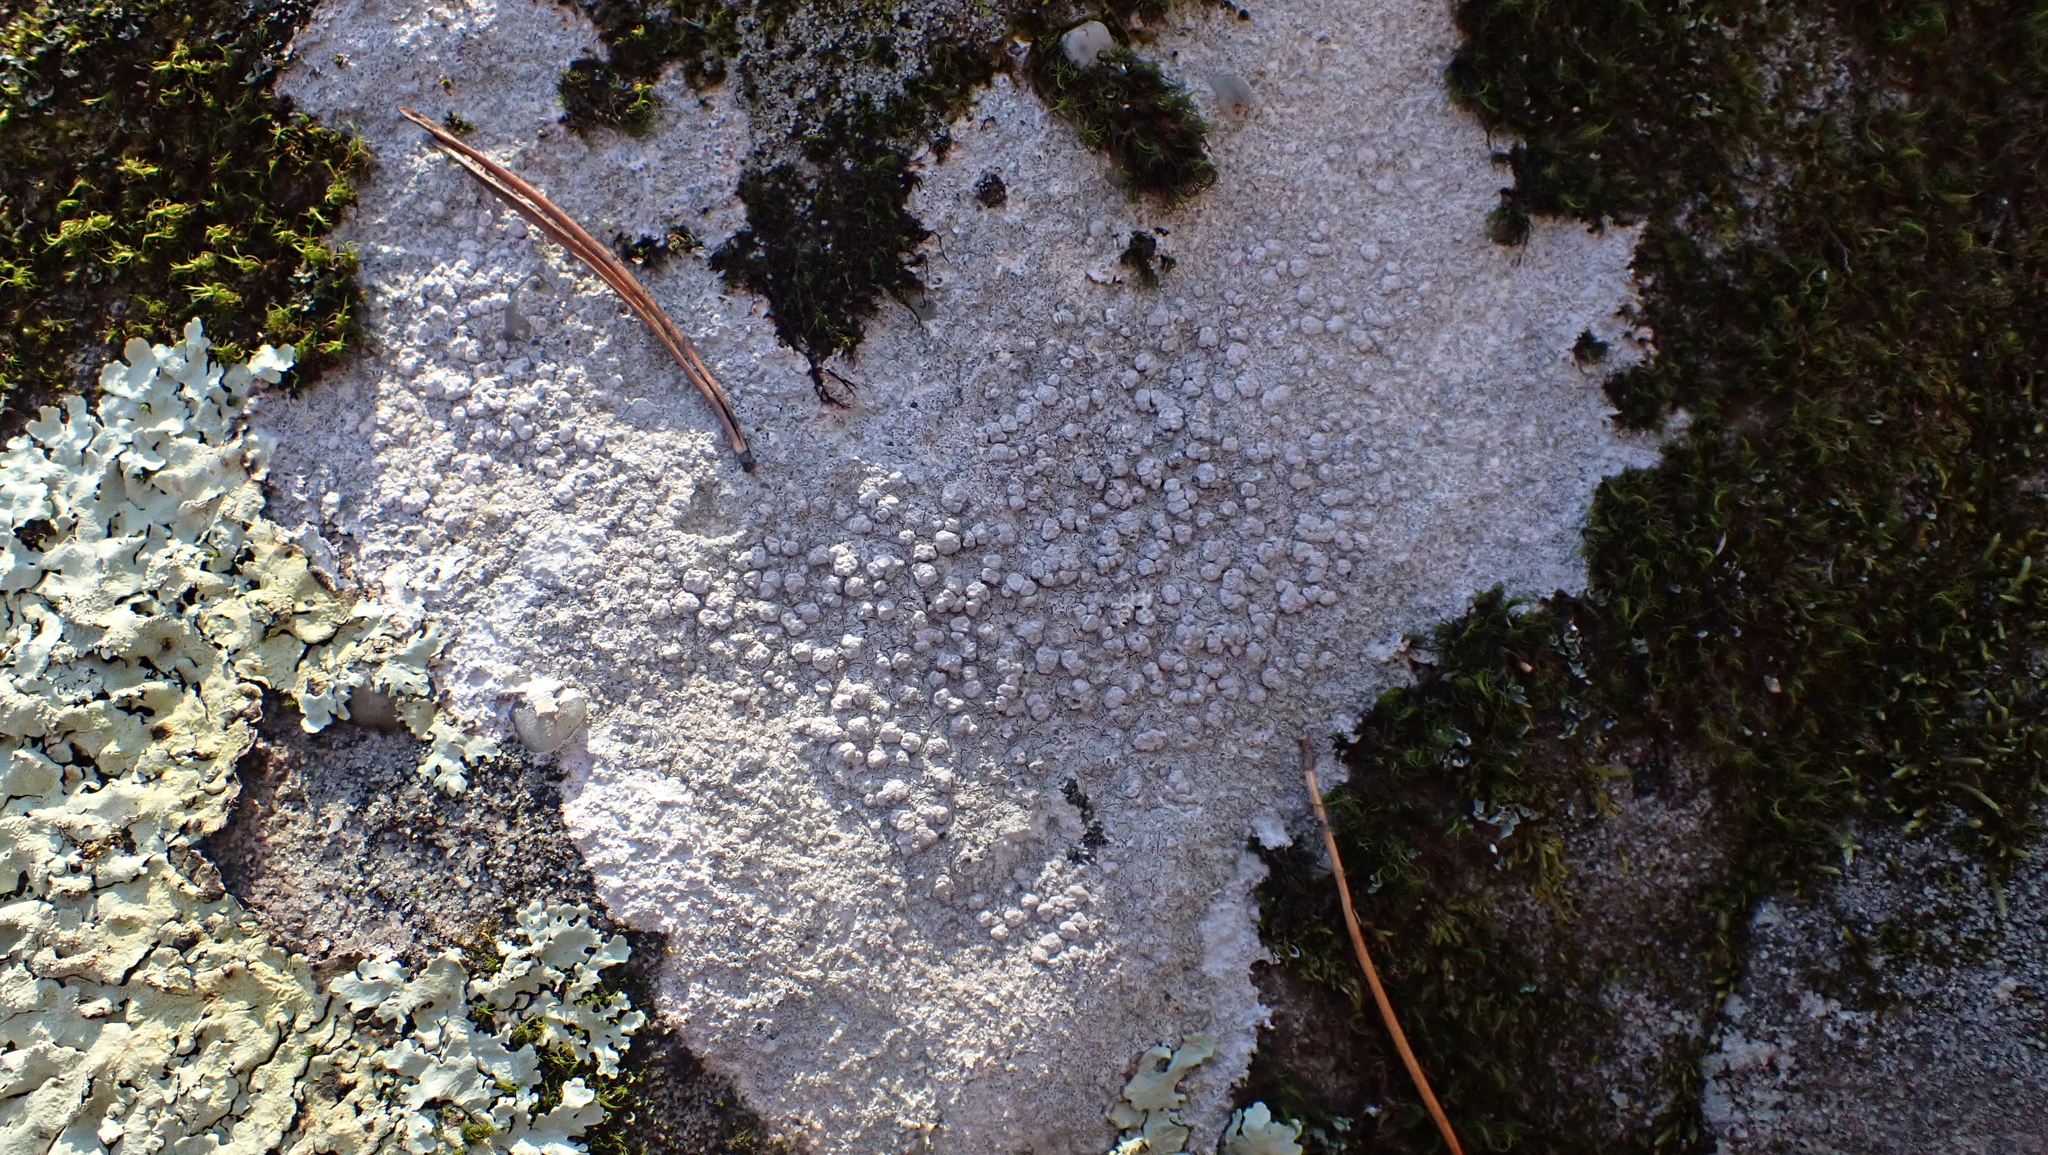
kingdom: Fungi
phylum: Ascomycota
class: Lecanoromycetes
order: Pertusariales
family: Pertusariaceae
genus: Pertusaria
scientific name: Pertusaria plittiana
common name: Rock wart lichen
